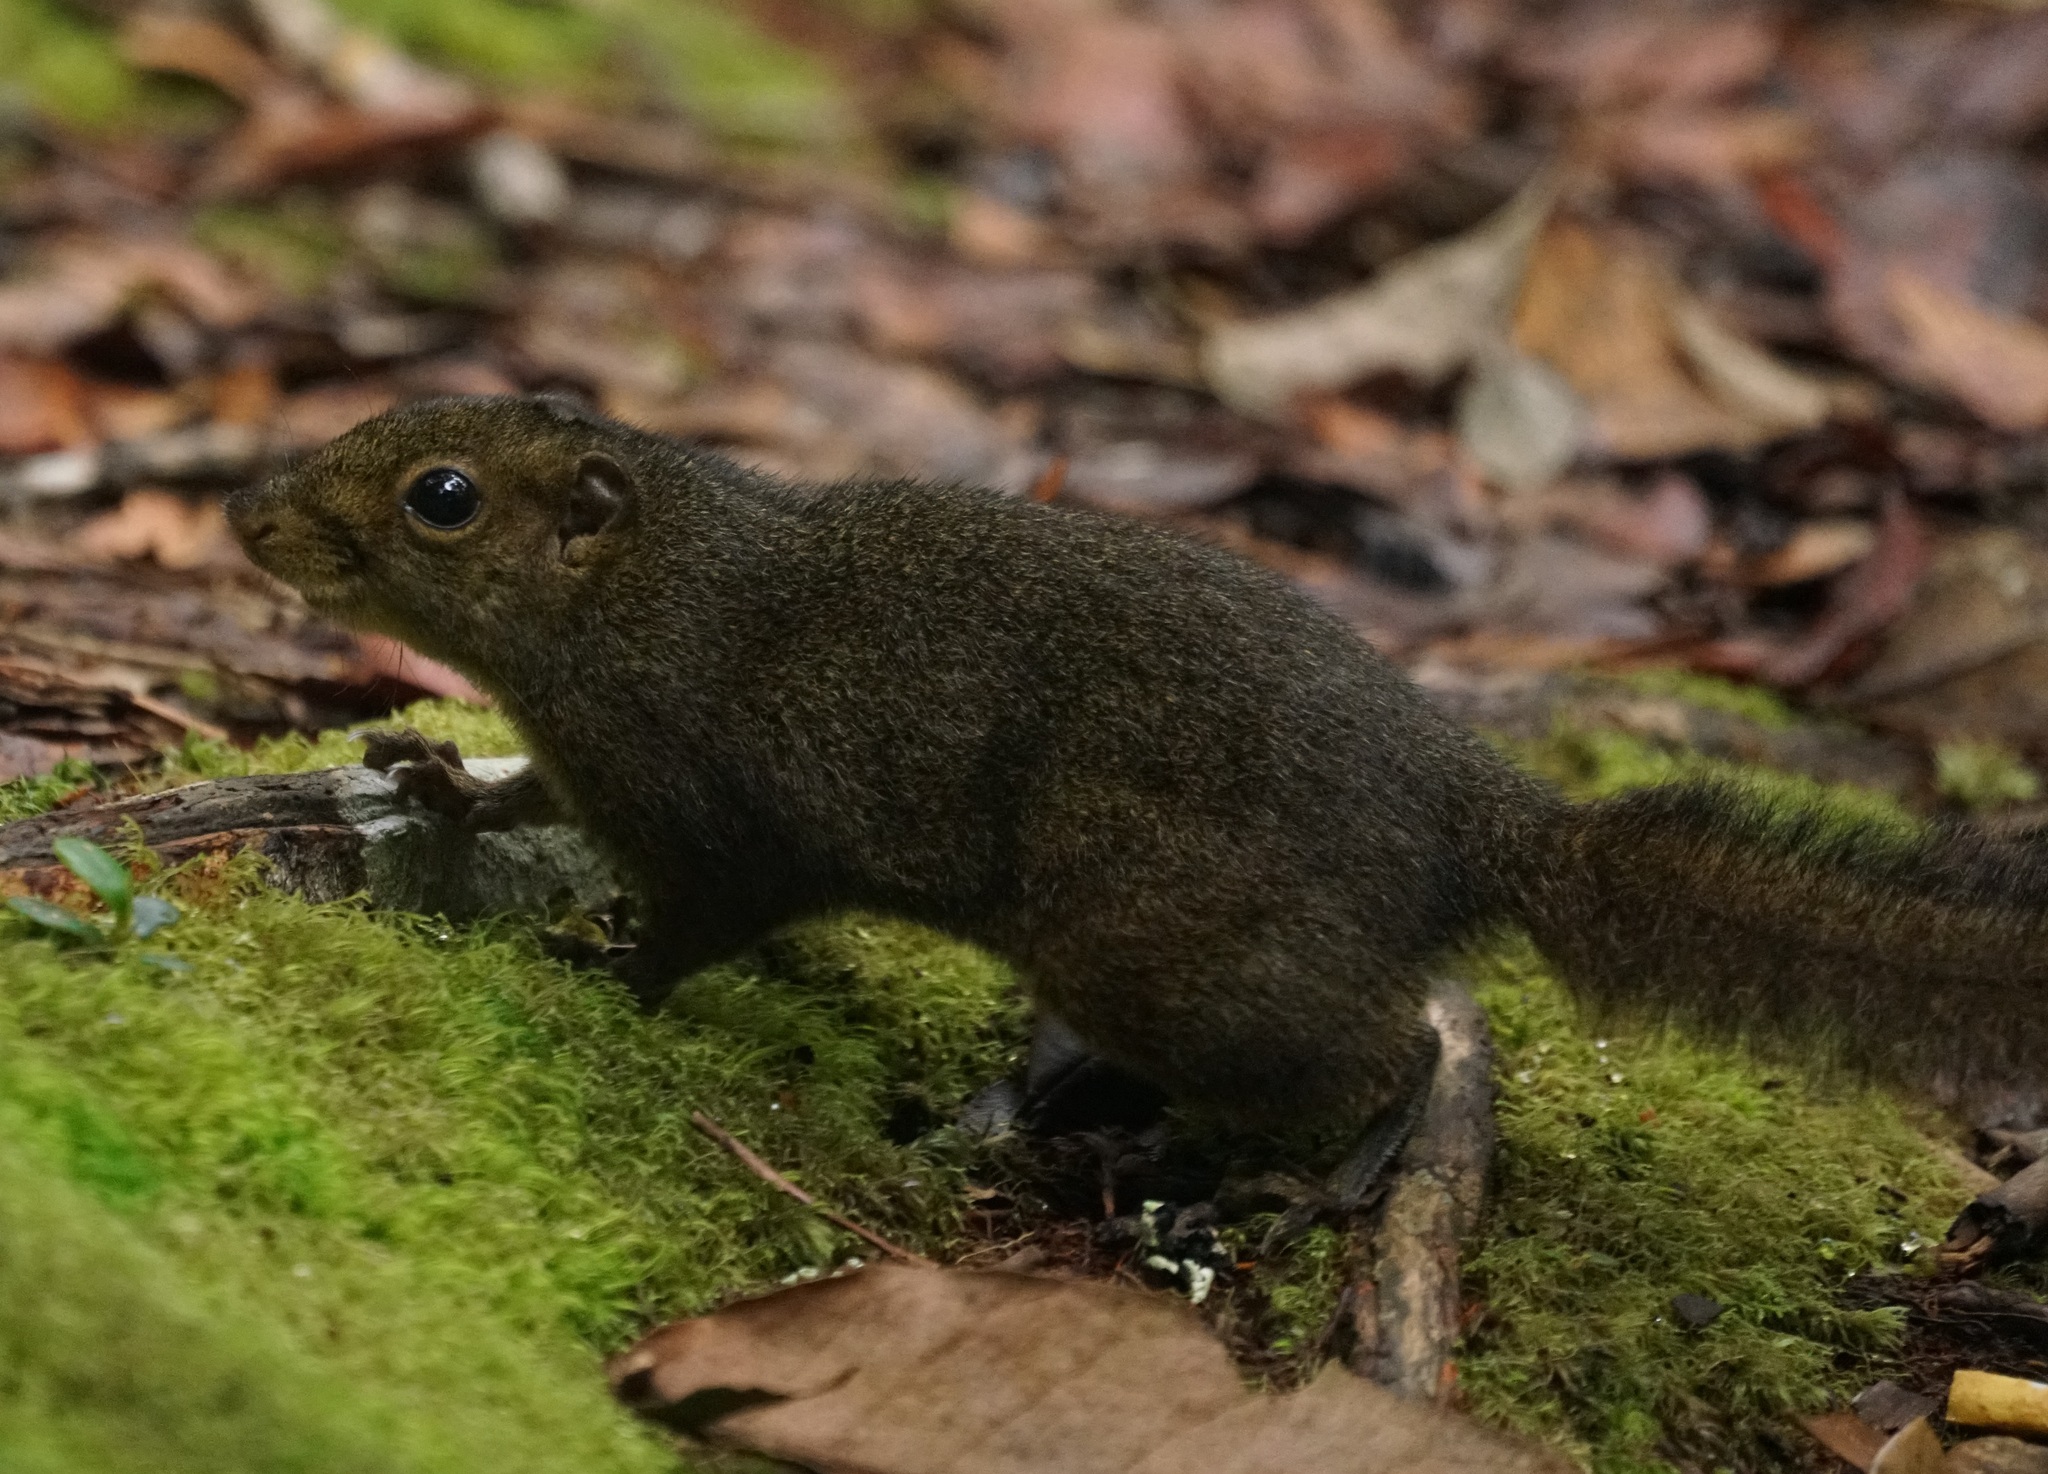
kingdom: Animalia
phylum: Chordata
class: Mammalia
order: Rodentia
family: Sciuridae
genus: Sundasciurus
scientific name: Sundasciurus everetti
